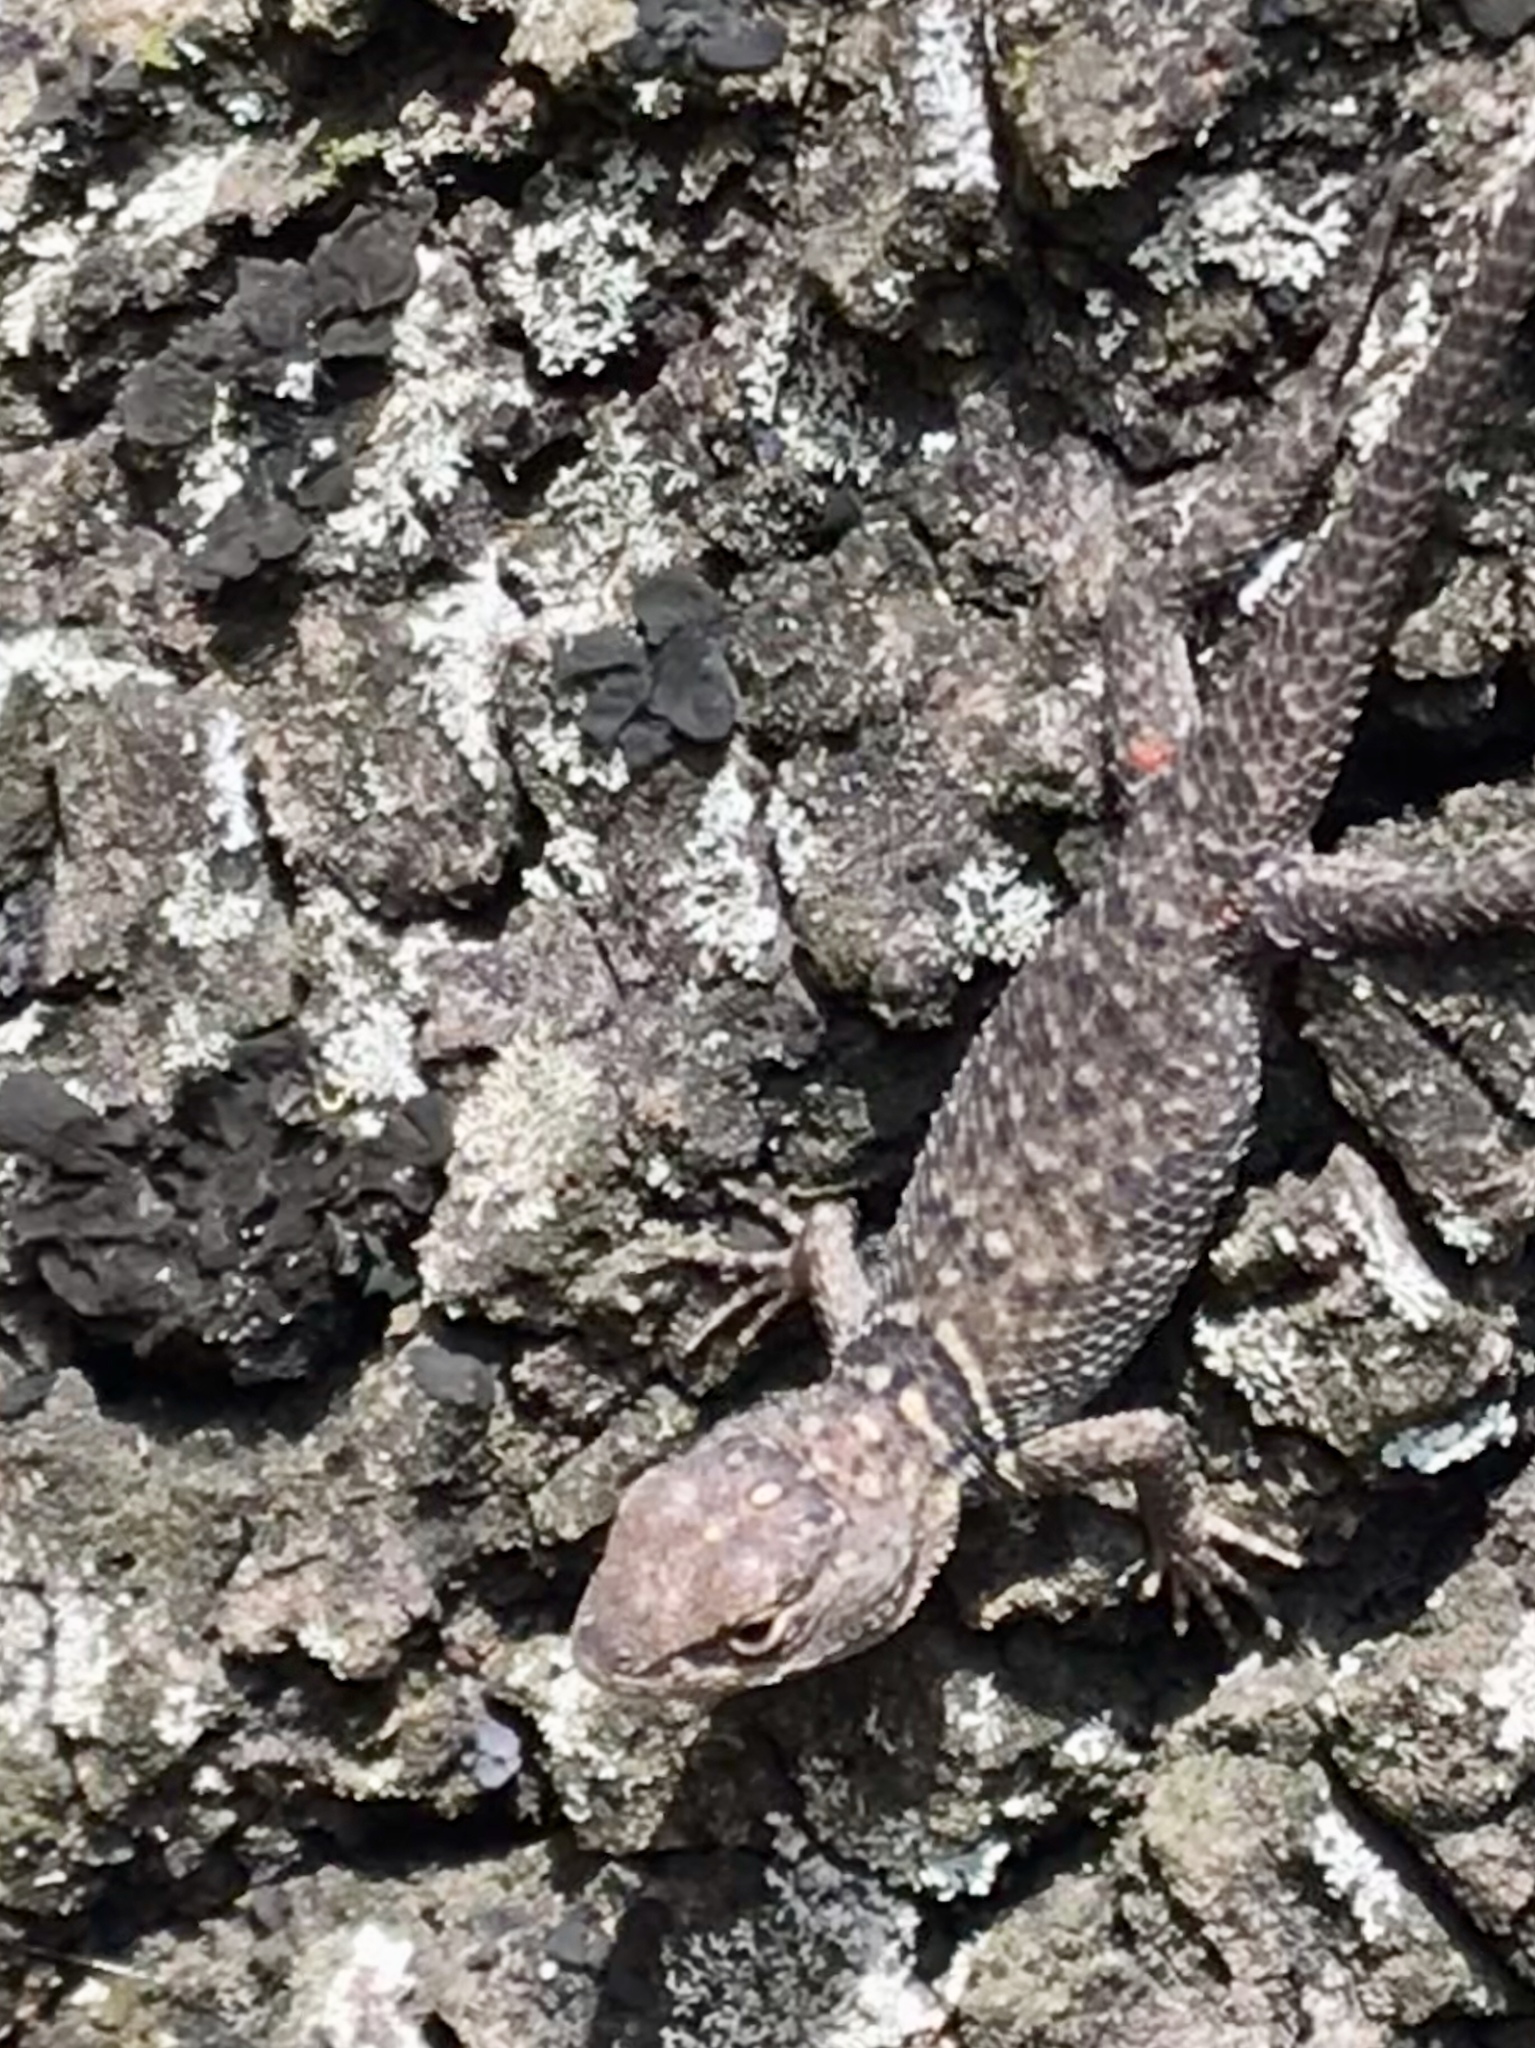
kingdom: Animalia
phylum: Chordata
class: Squamata
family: Phrynosomatidae
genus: Sceloporus
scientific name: Sceloporus torquatus
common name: Central plateau torquate lizard [melanogaster]
